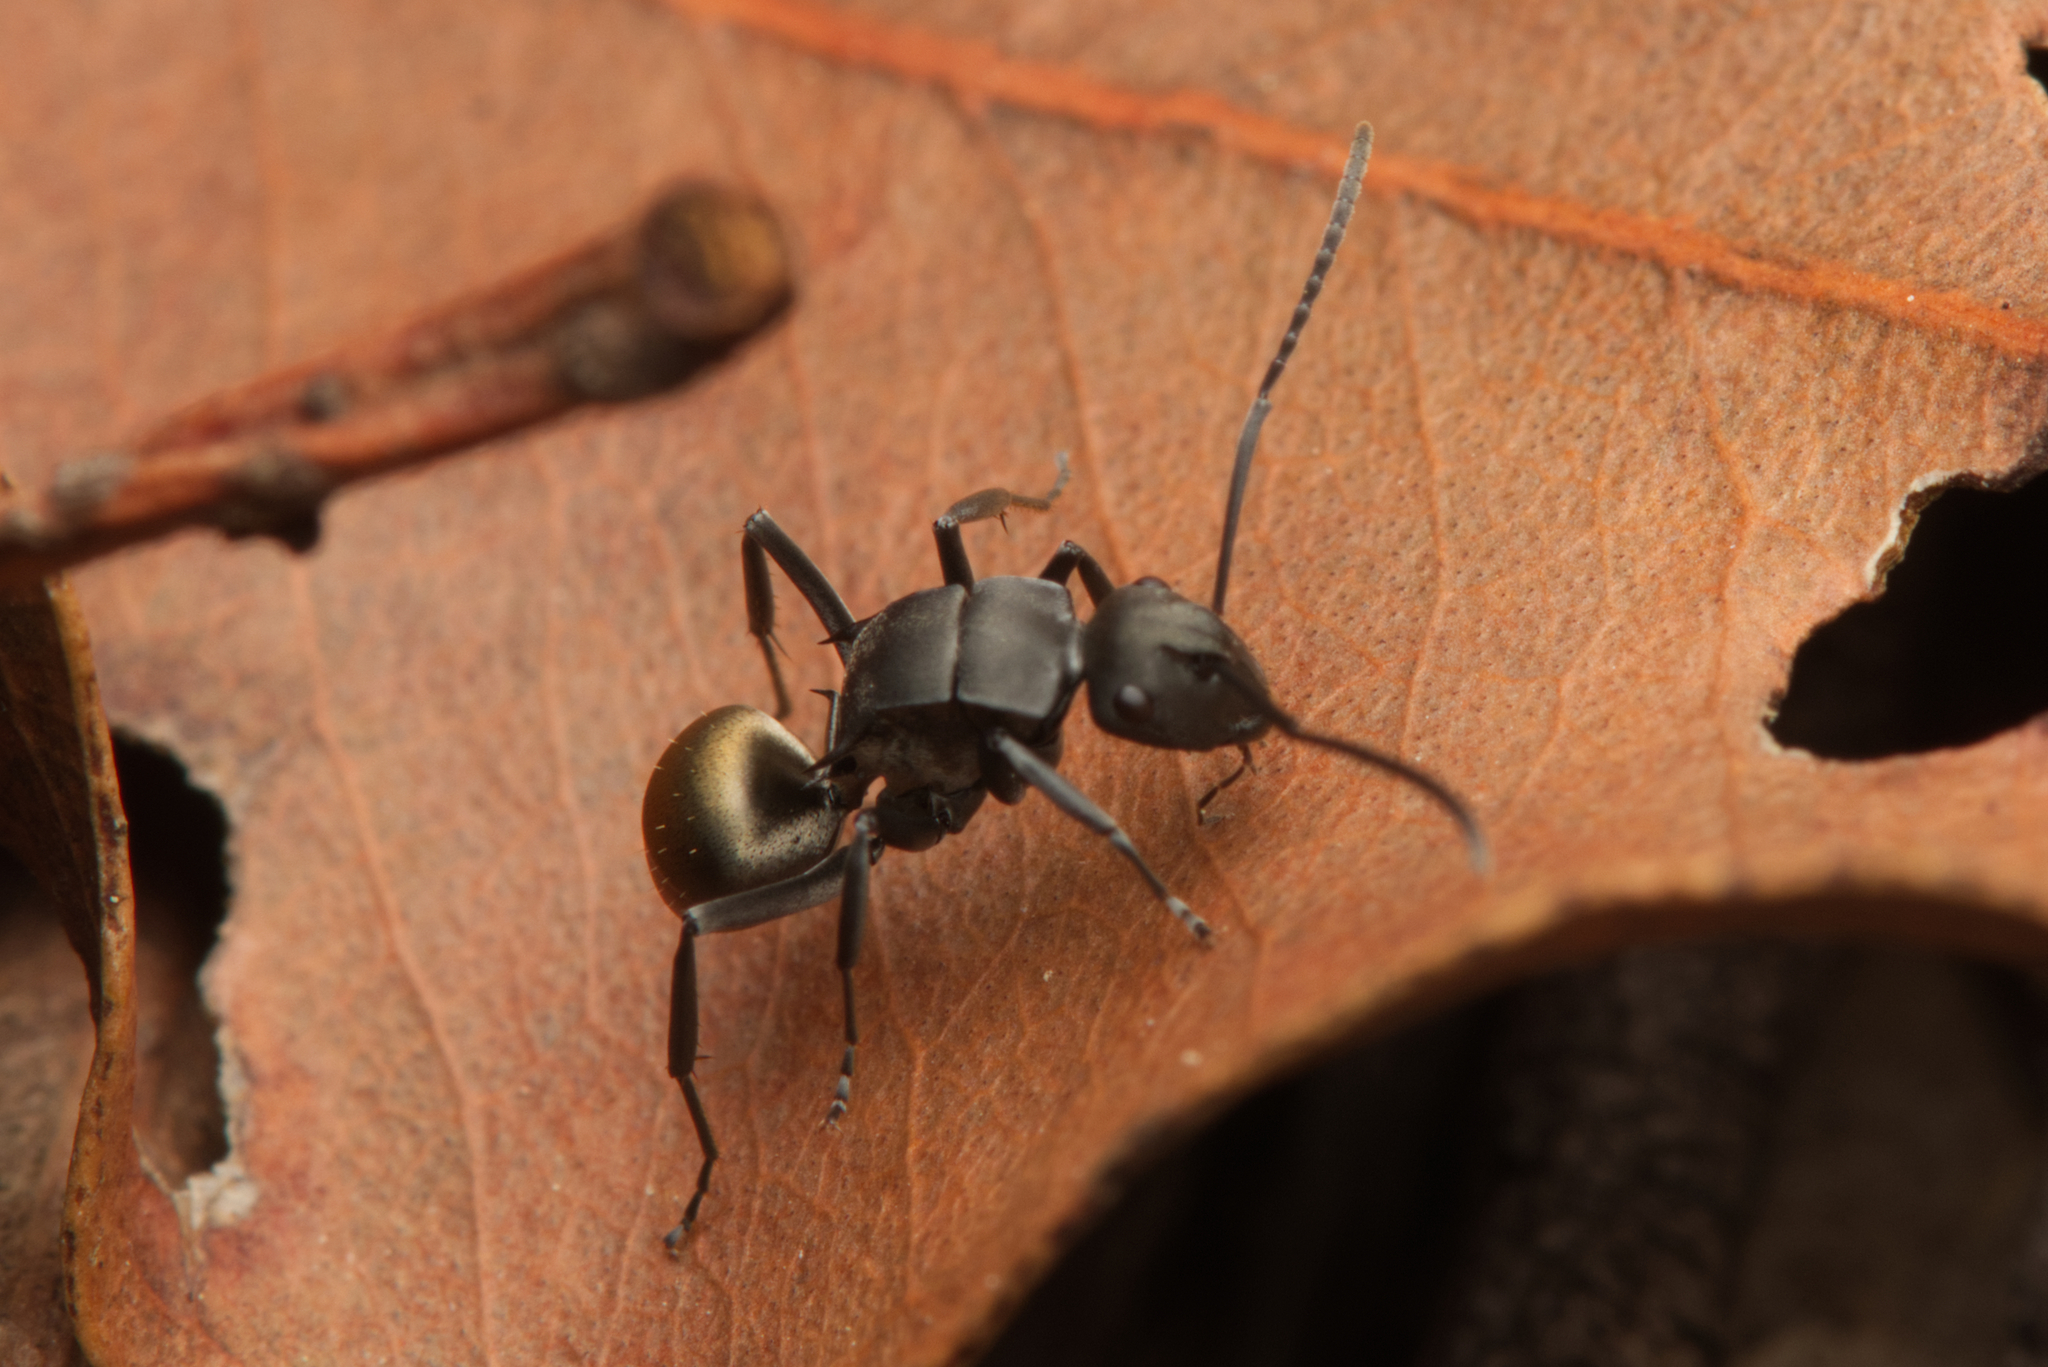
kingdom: Animalia
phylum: Arthropoda
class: Insecta
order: Hymenoptera
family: Formicidae
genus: Polyrhachis
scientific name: Polyrhachis tubifera
